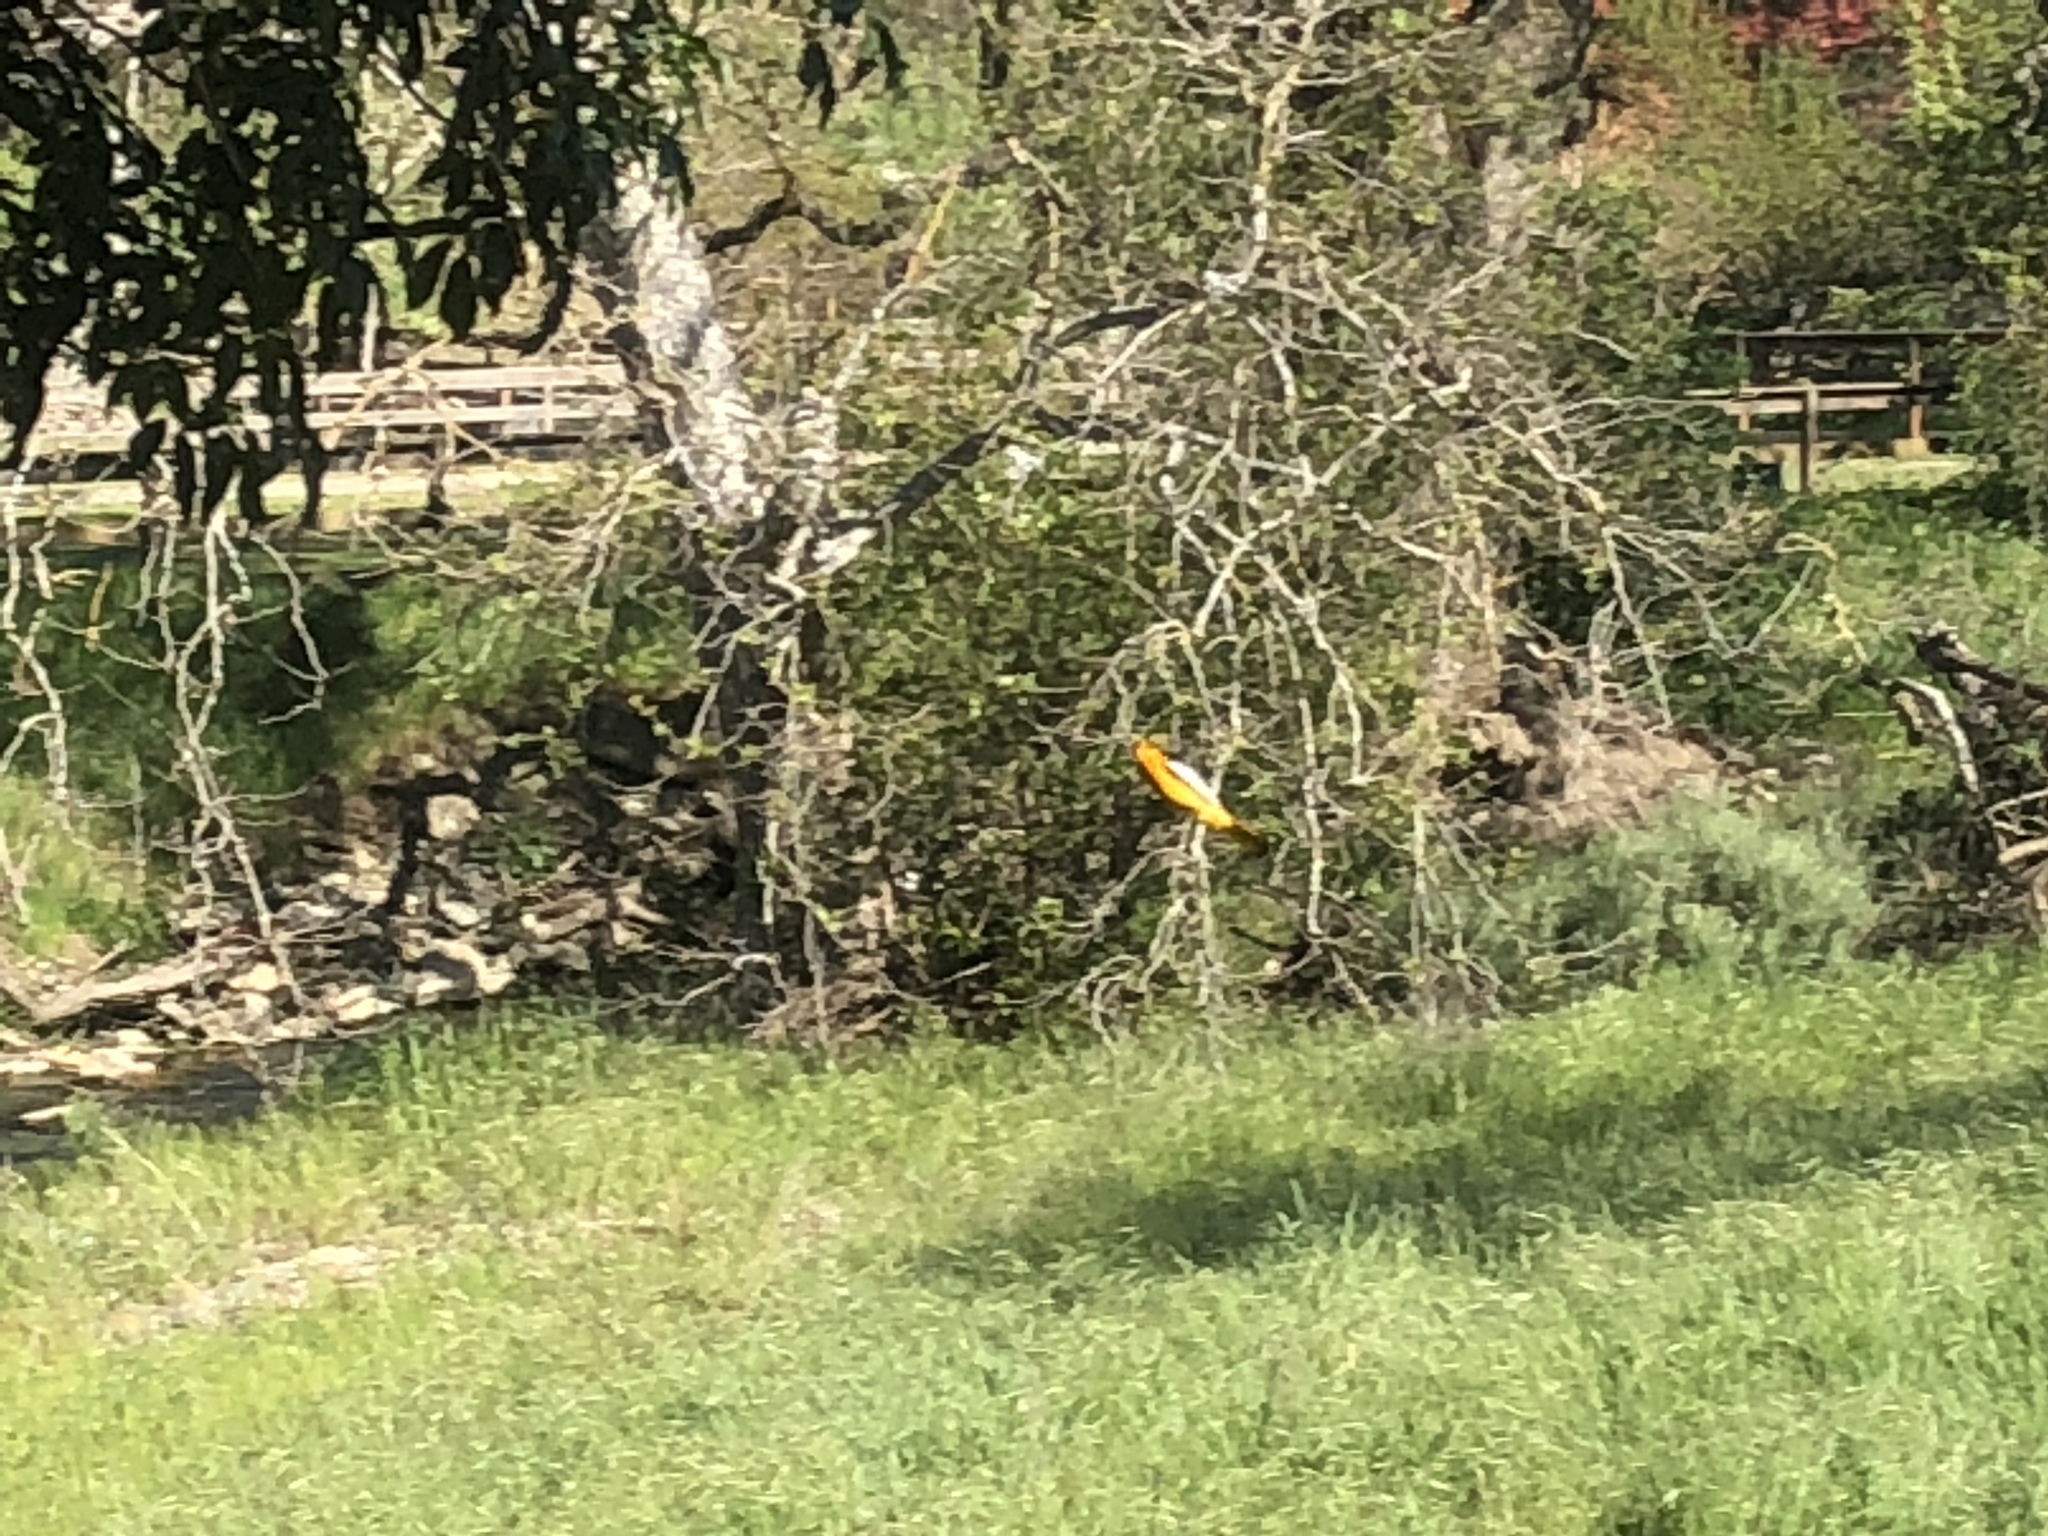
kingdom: Animalia
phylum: Chordata
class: Aves
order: Passeriformes
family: Icteridae
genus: Icterus
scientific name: Icterus bullockii
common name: Bullock's oriole
